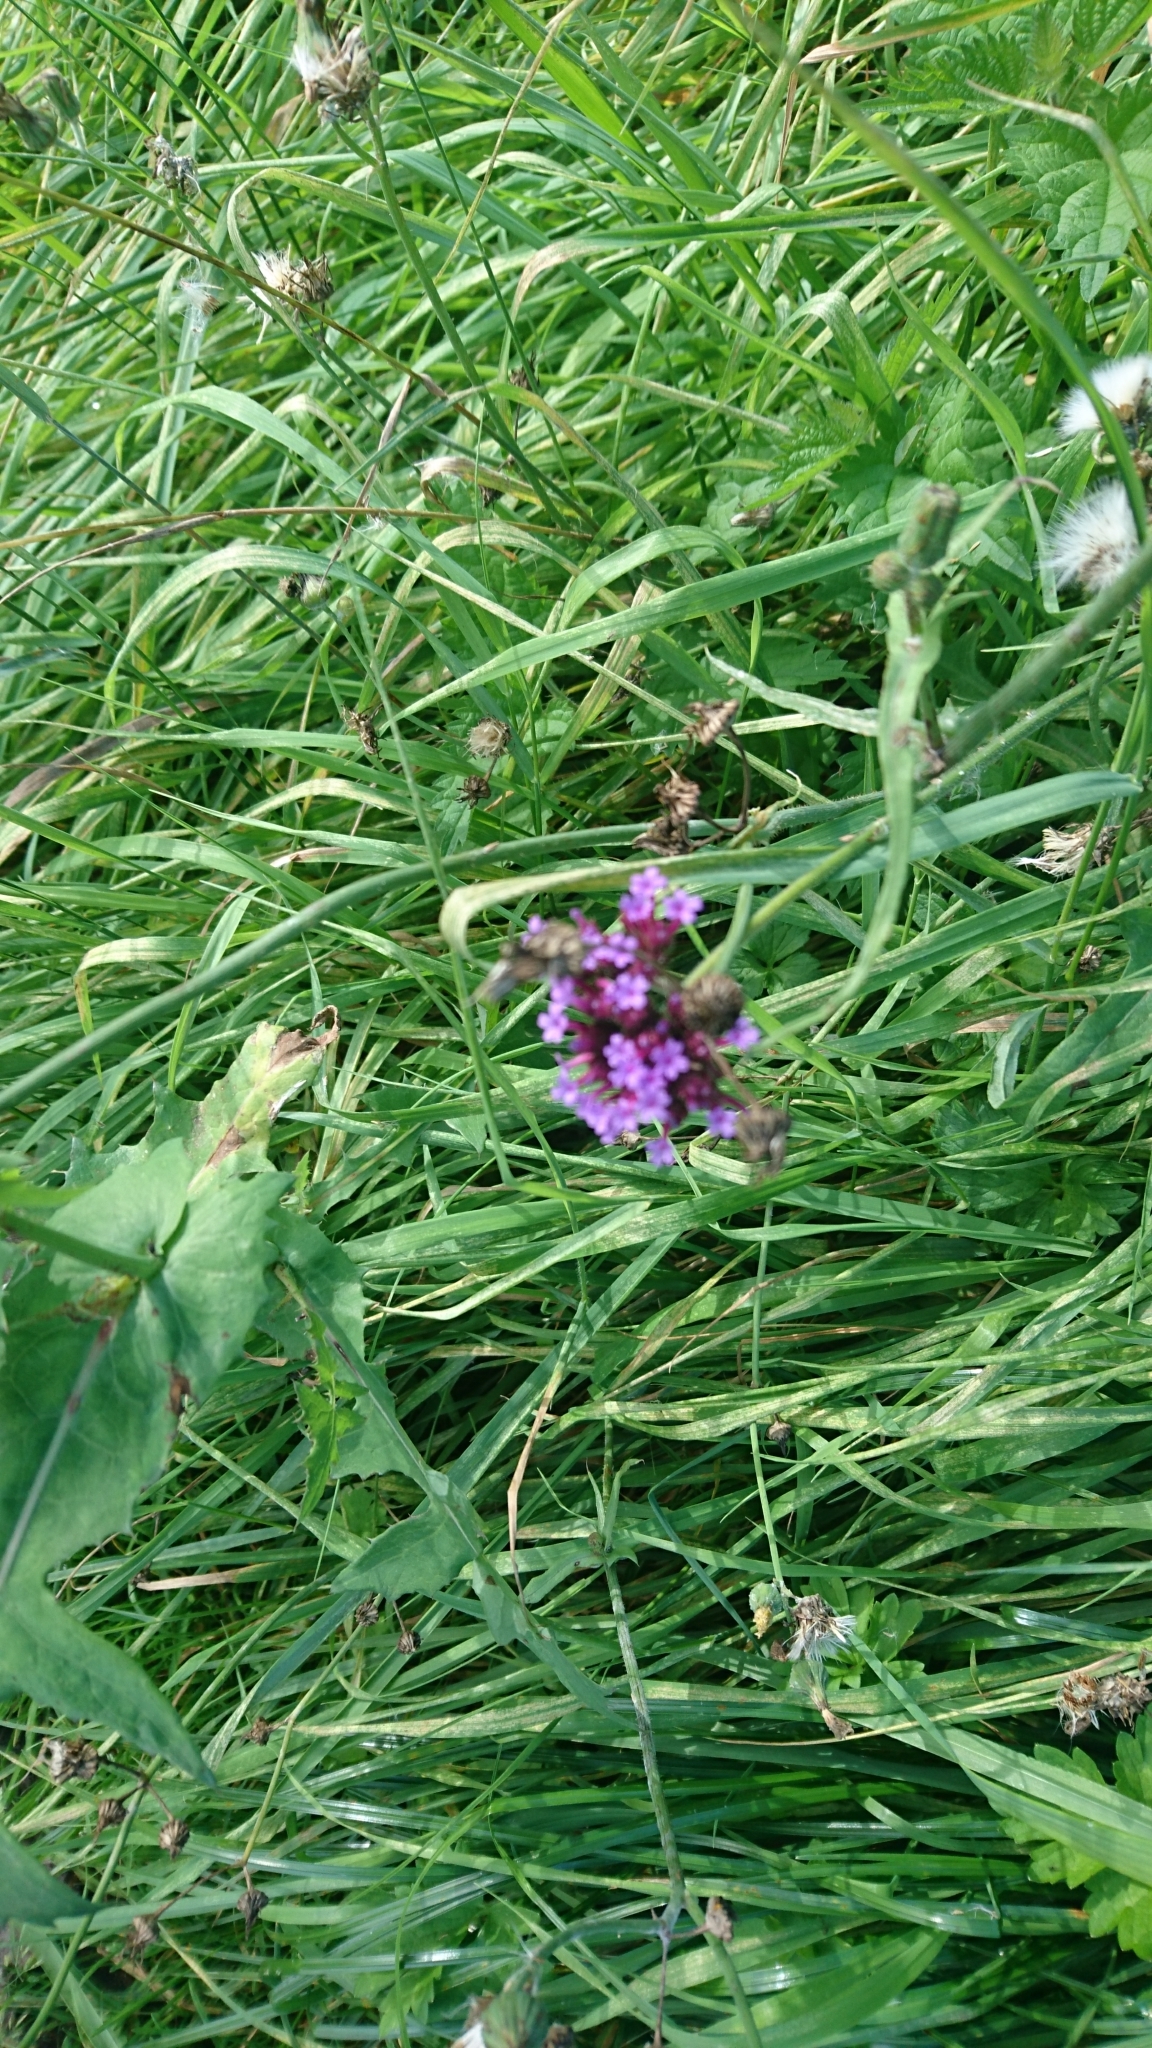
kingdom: Plantae
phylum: Tracheophyta
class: Magnoliopsida
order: Lamiales
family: Verbenaceae
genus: Verbena
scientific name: Verbena bonariensis
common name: Purpletop vervain
